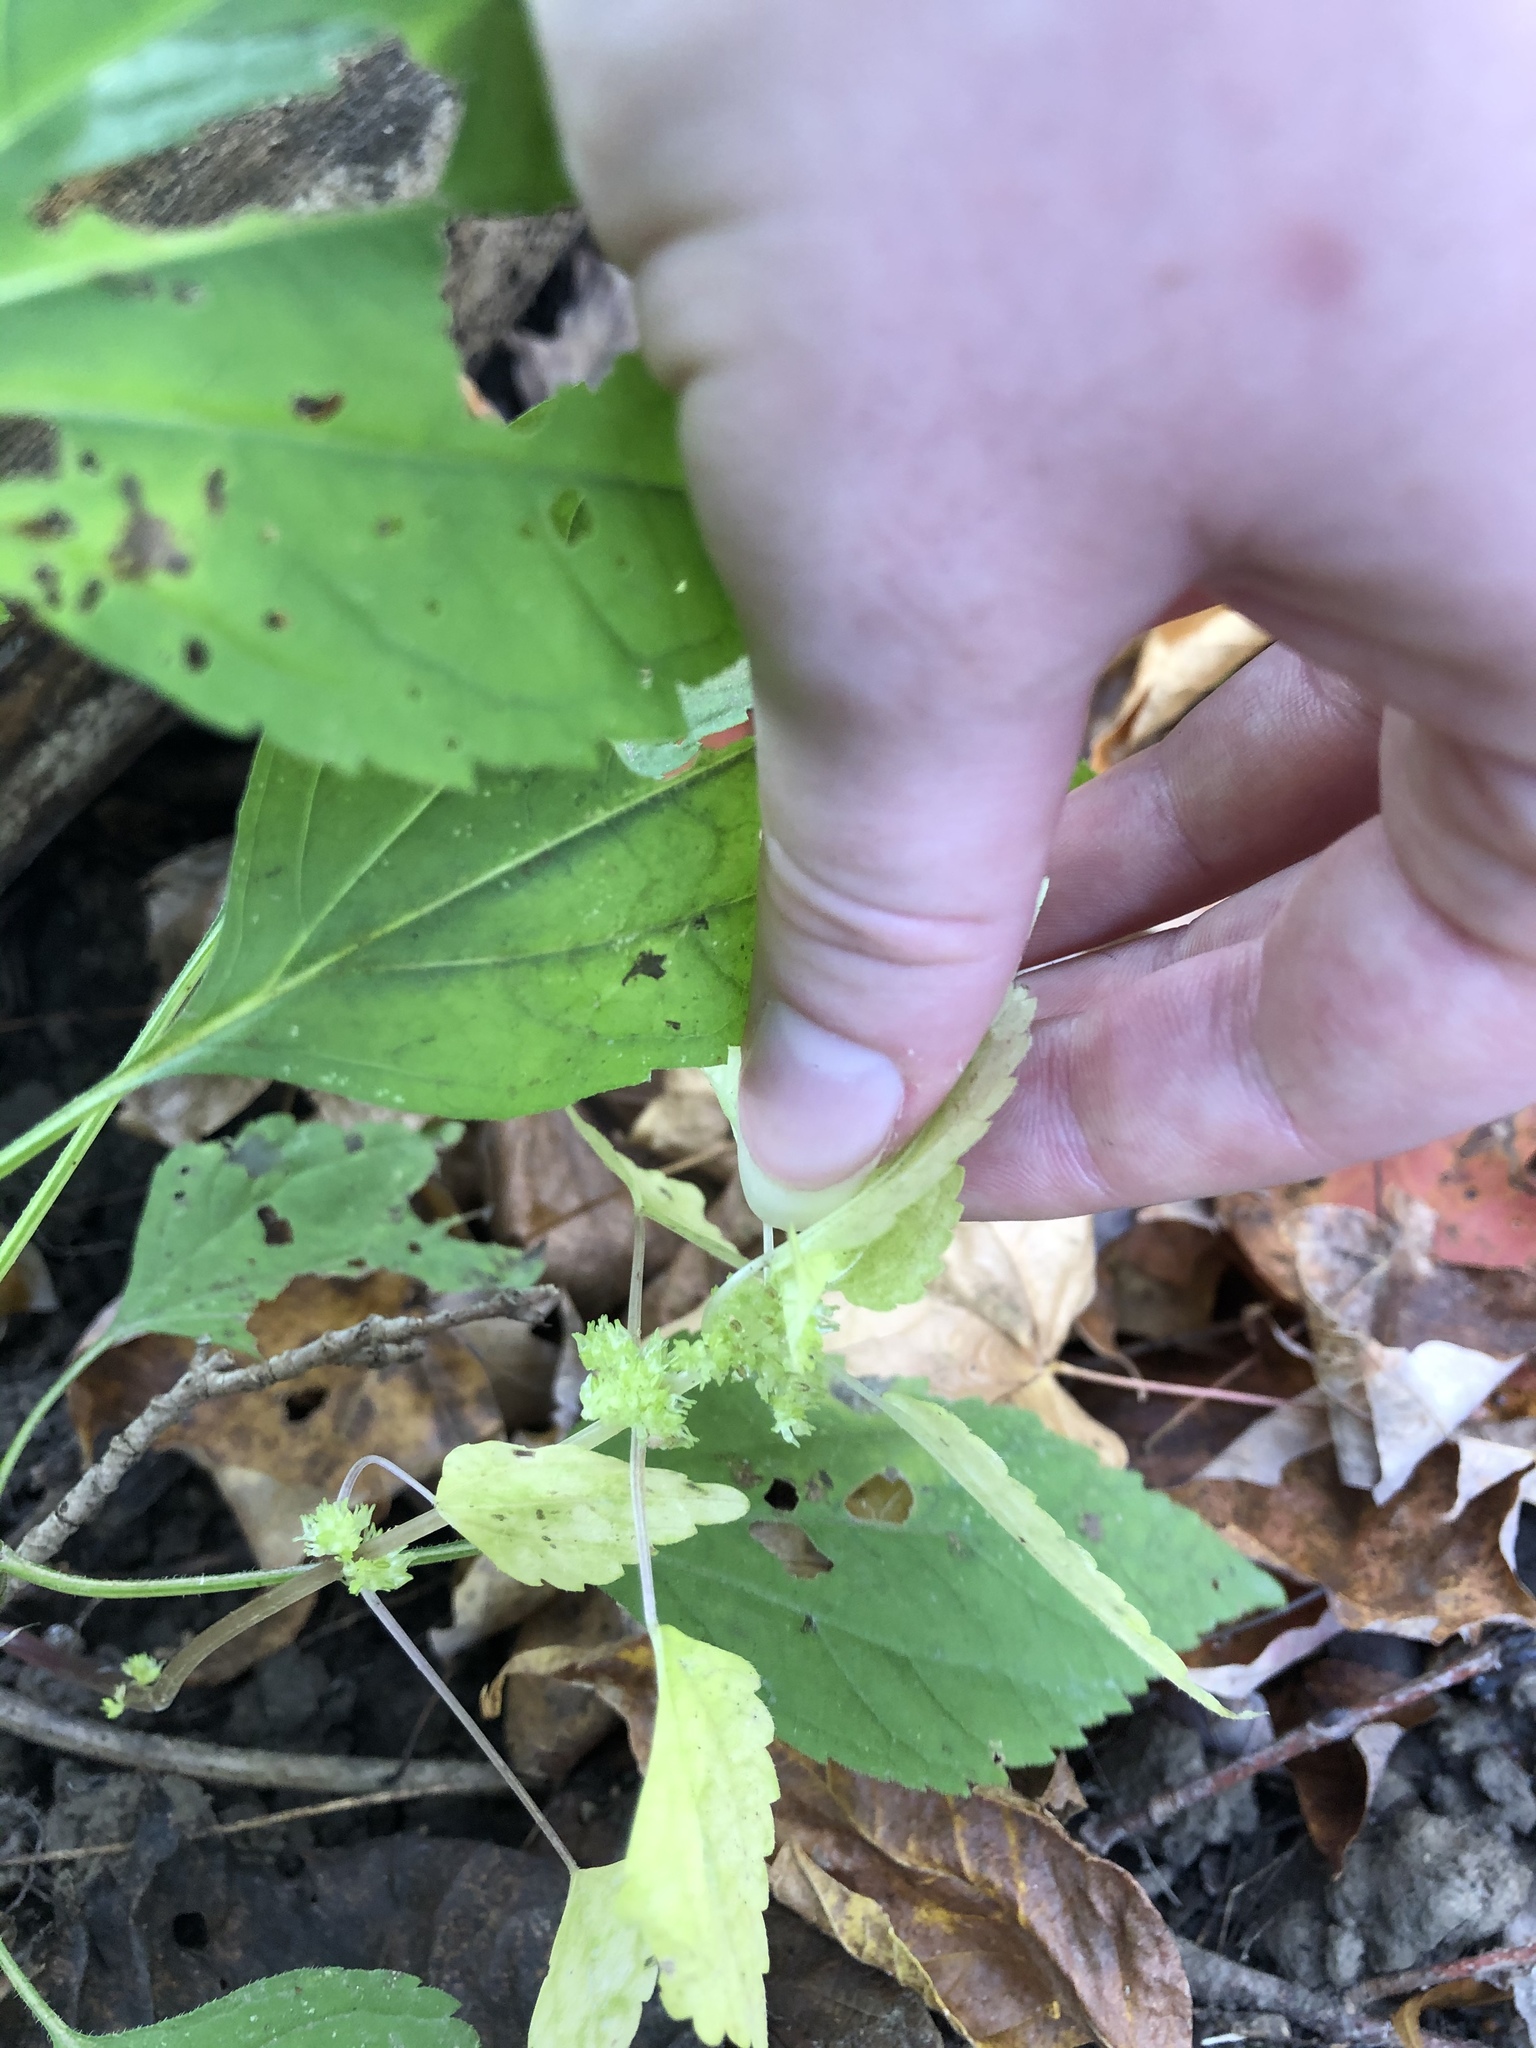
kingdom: Plantae
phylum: Tracheophyta
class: Magnoliopsida
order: Rosales
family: Urticaceae
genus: Pilea
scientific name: Pilea pumila
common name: Clearweed
